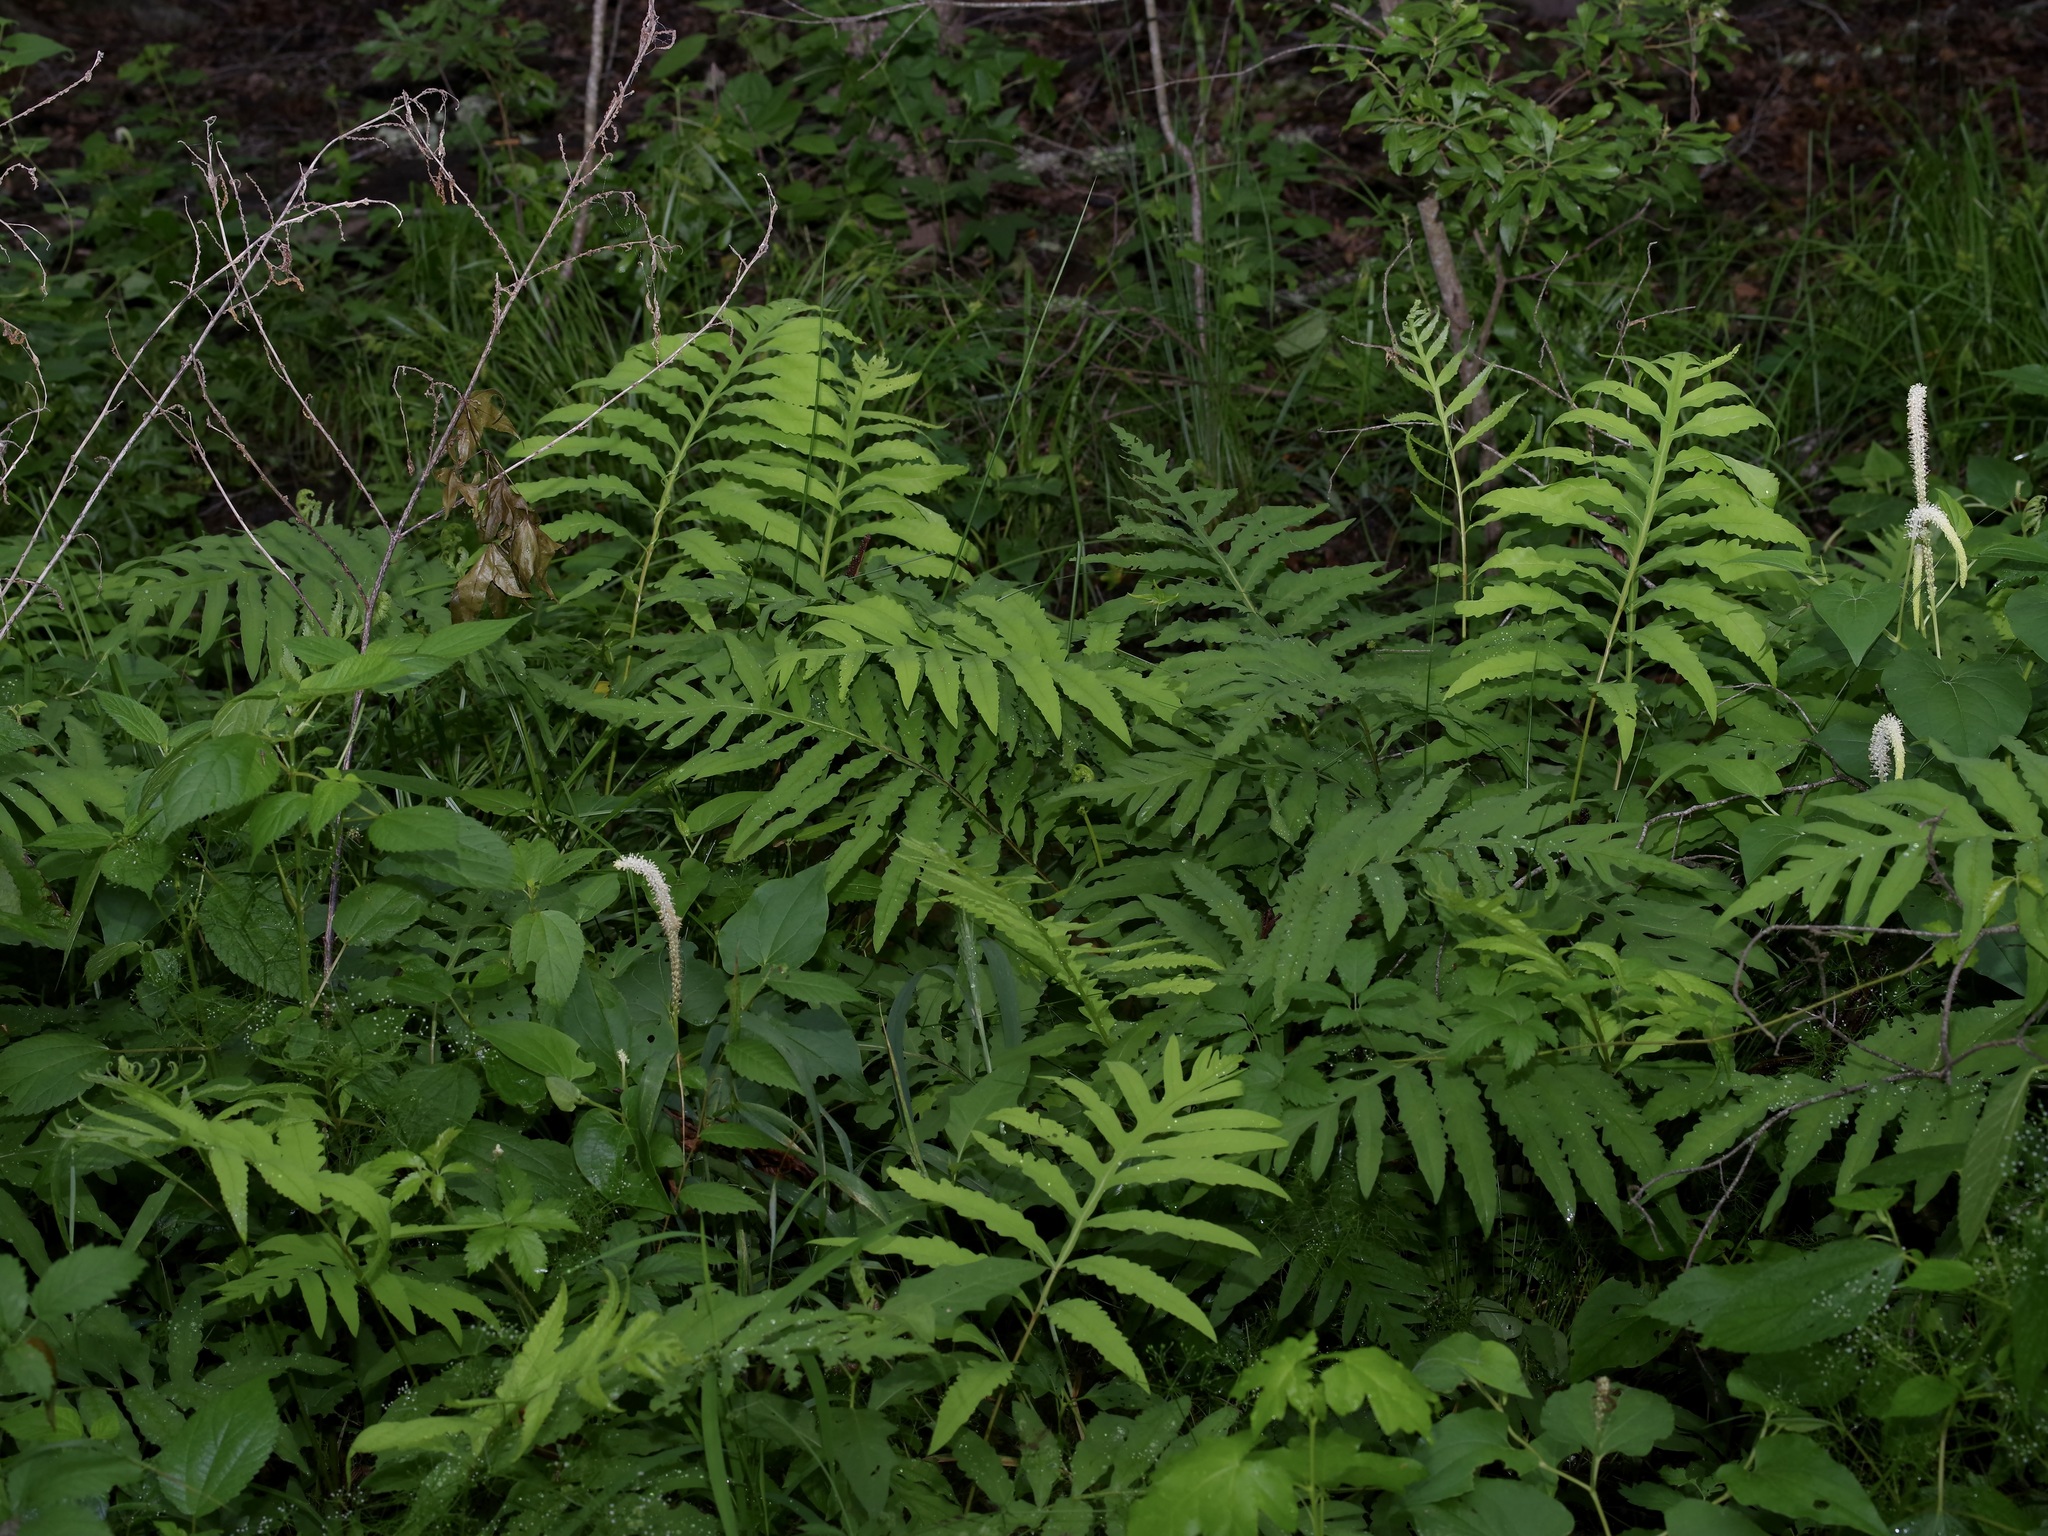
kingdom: Plantae
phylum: Tracheophyta
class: Polypodiopsida
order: Polypodiales
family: Onocleaceae
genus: Onoclea
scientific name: Onoclea sensibilis
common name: Sensitive fern
